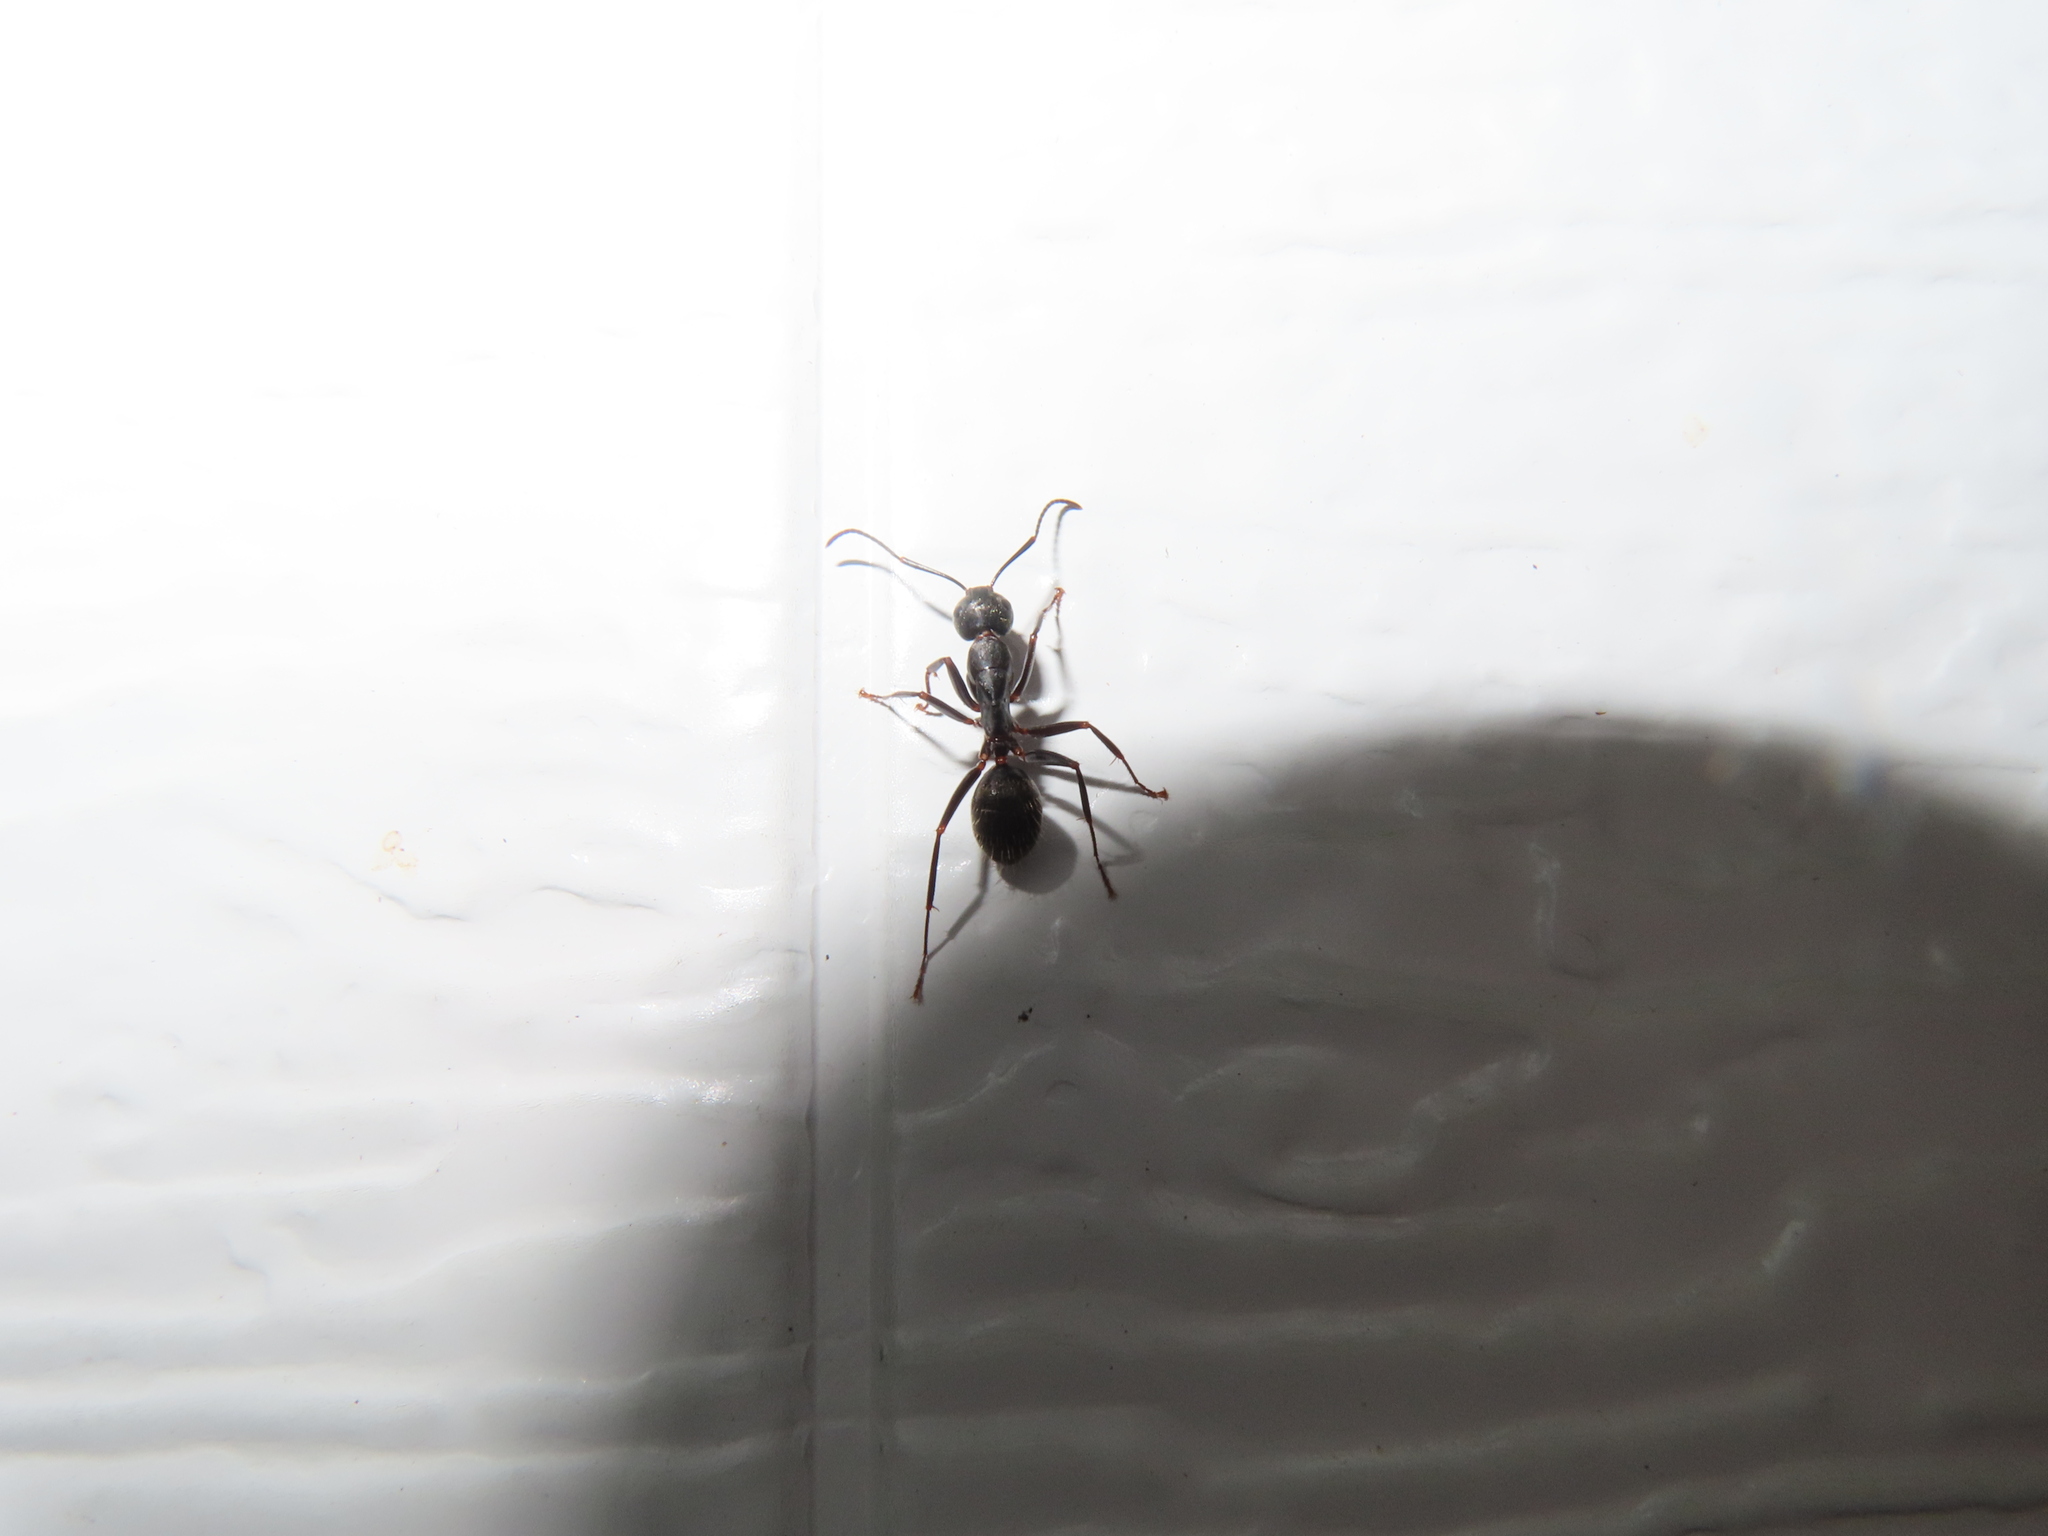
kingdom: Animalia
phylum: Arthropoda
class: Insecta
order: Hymenoptera
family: Formicidae
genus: Camponotus
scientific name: Camponotus pennsylvanicus
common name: Black carpenter ant
